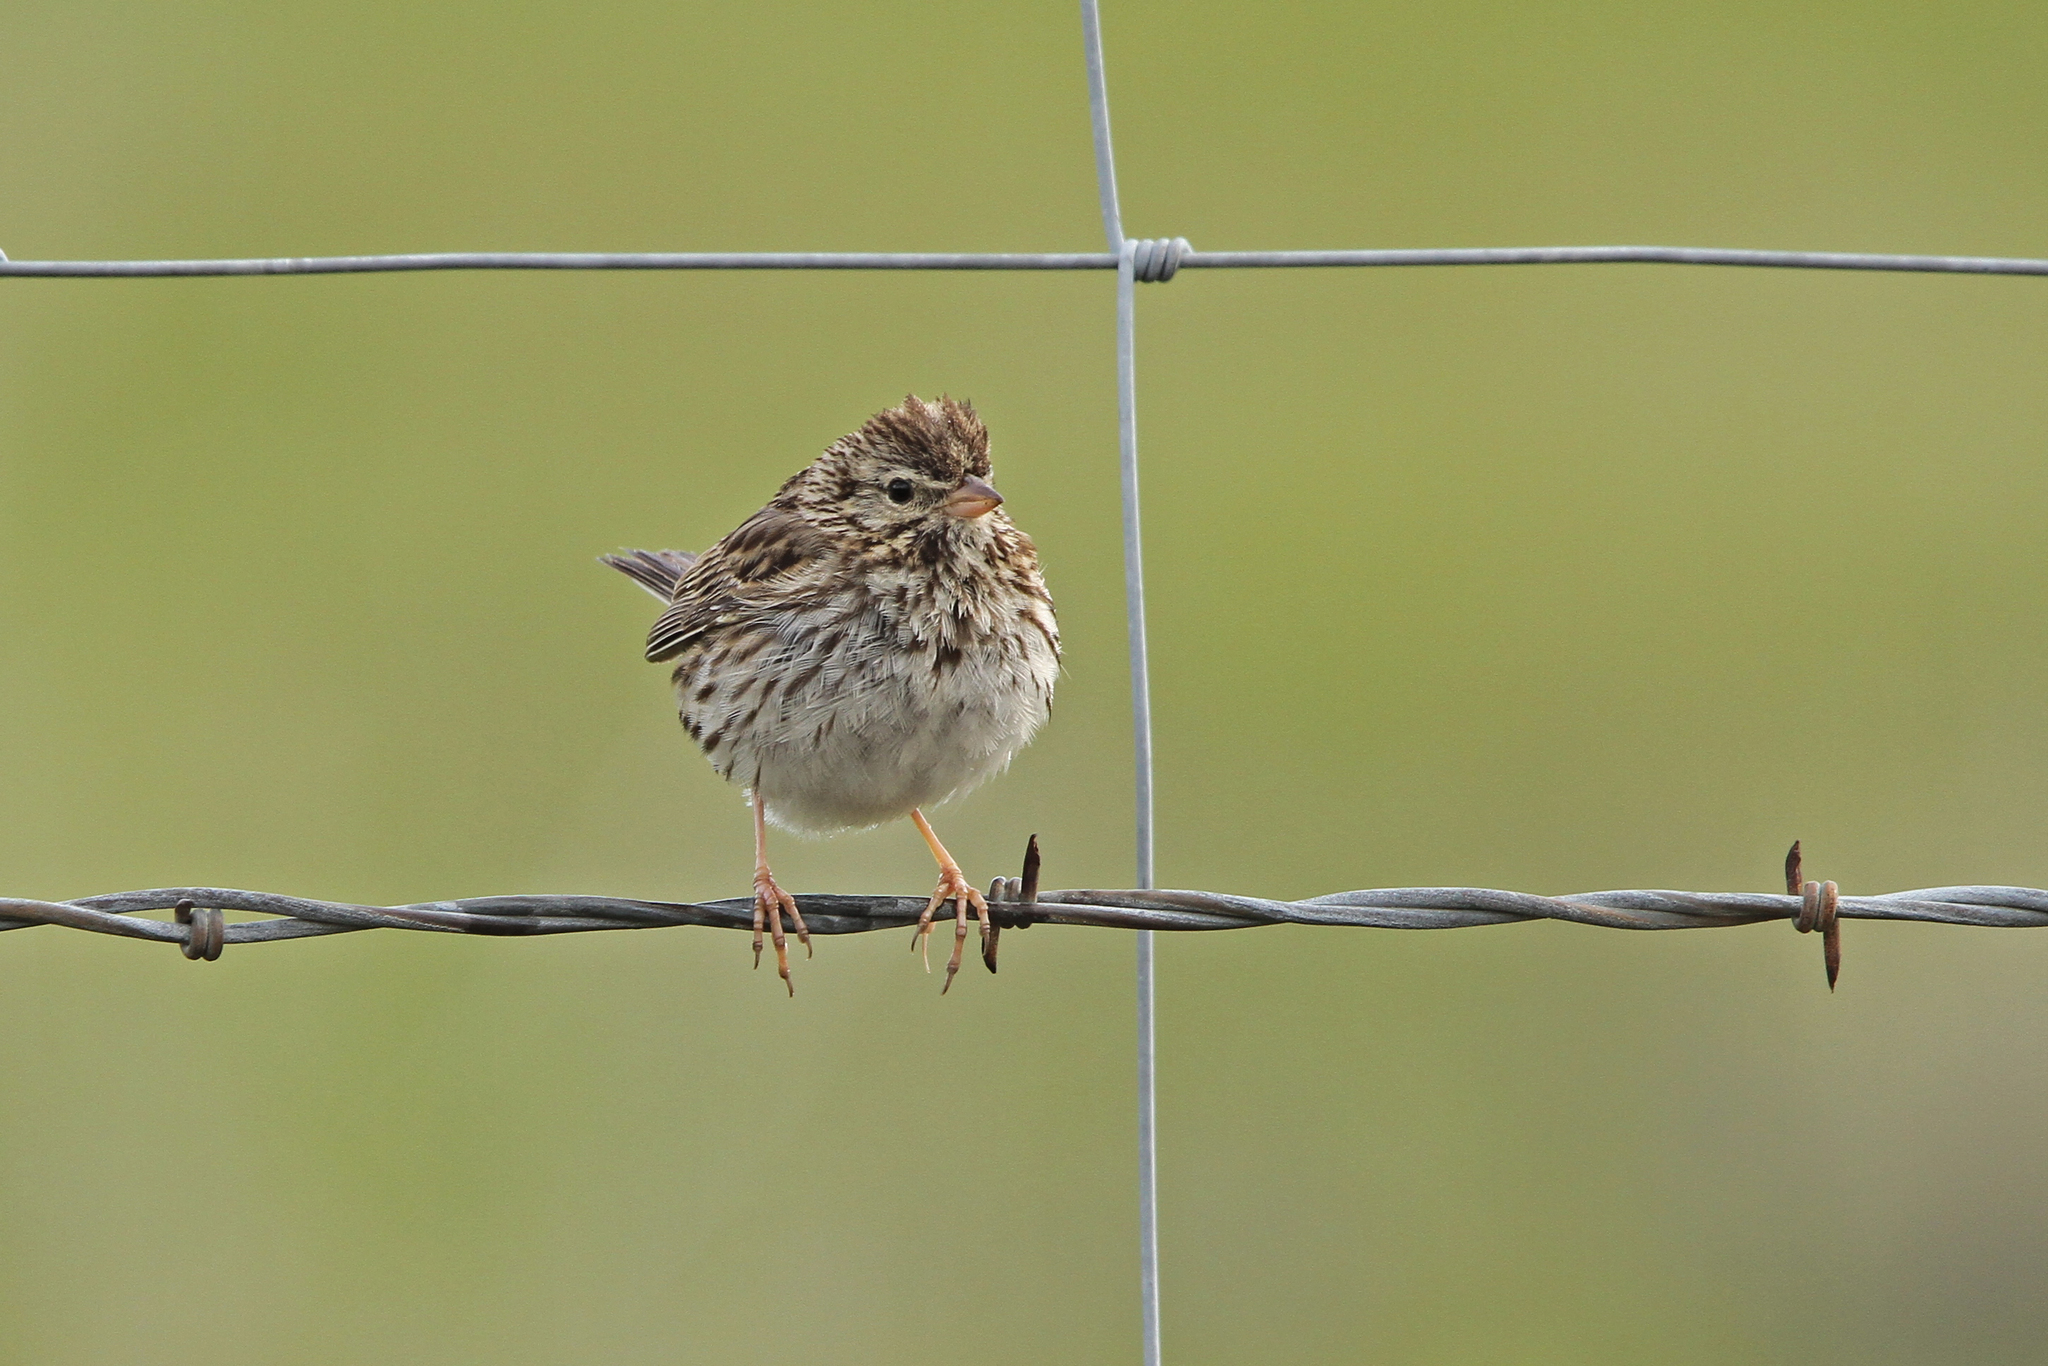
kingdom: Animalia
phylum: Chordata
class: Aves
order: Passeriformes
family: Passerellidae
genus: Passerculus
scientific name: Passerculus sandwichensis
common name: Savannah sparrow
